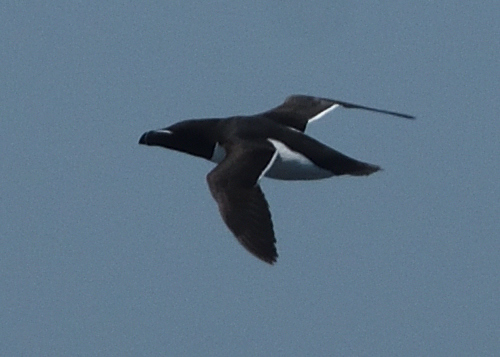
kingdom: Animalia
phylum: Chordata
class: Aves
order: Charadriiformes
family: Alcidae
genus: Alca
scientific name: Alca torda
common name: Razorbill
